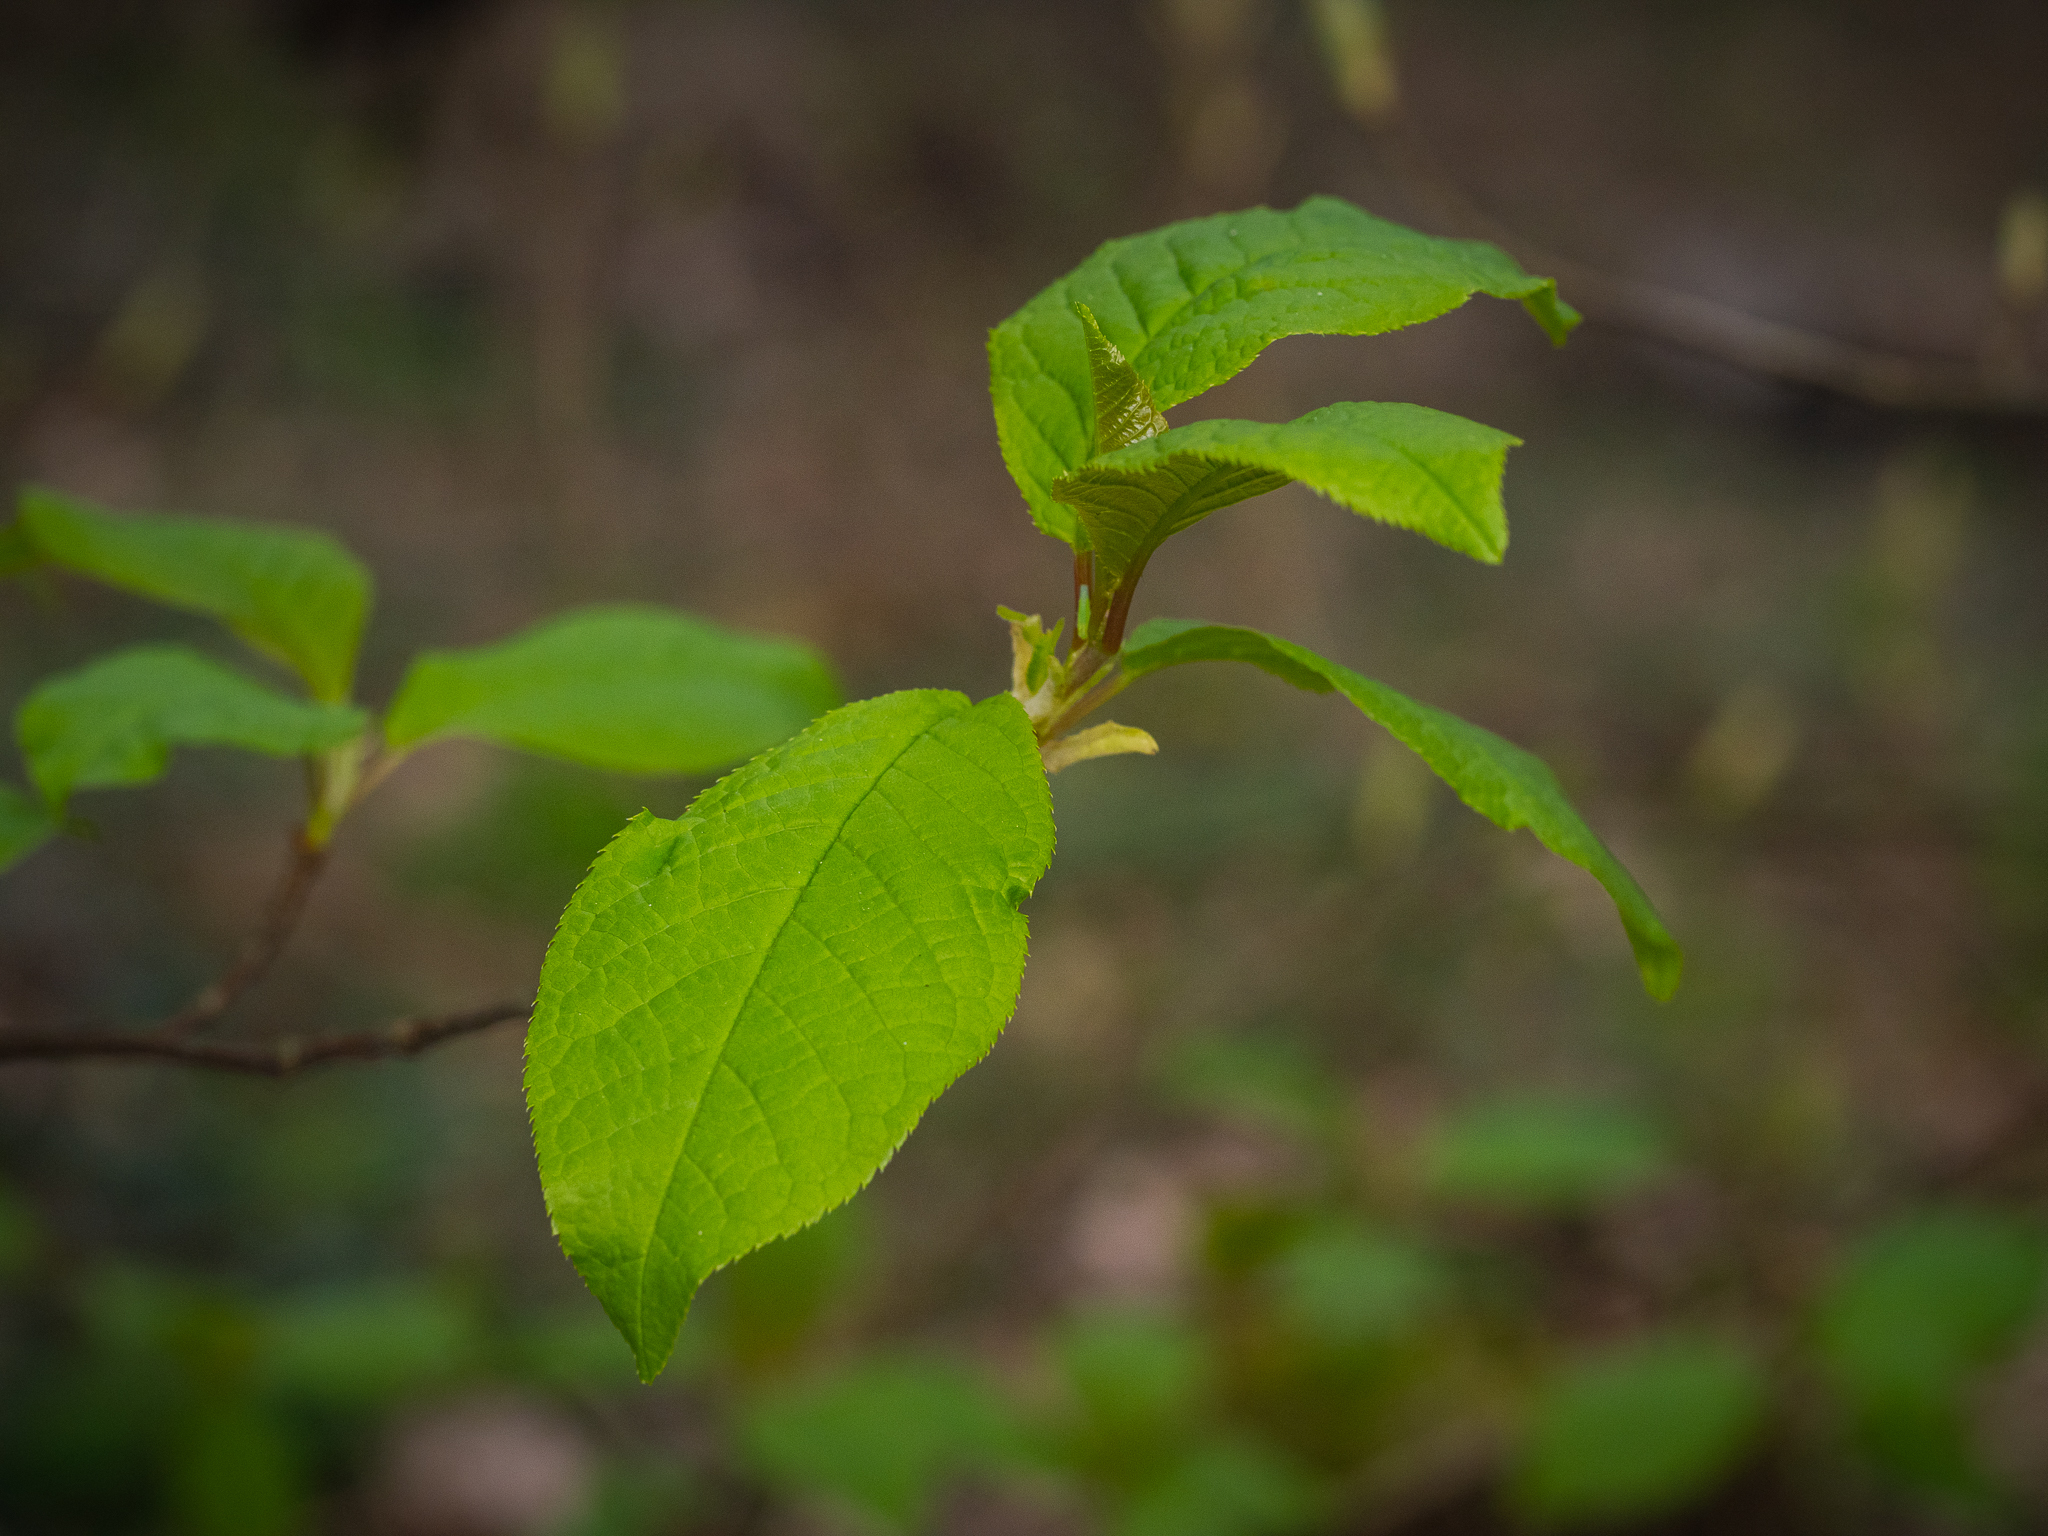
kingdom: Plantae
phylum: Tracheophyta
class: Magnoliopsida
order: Rosales
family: Rosaceae
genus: Prunus
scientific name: Prunus padus
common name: Bird cherry
